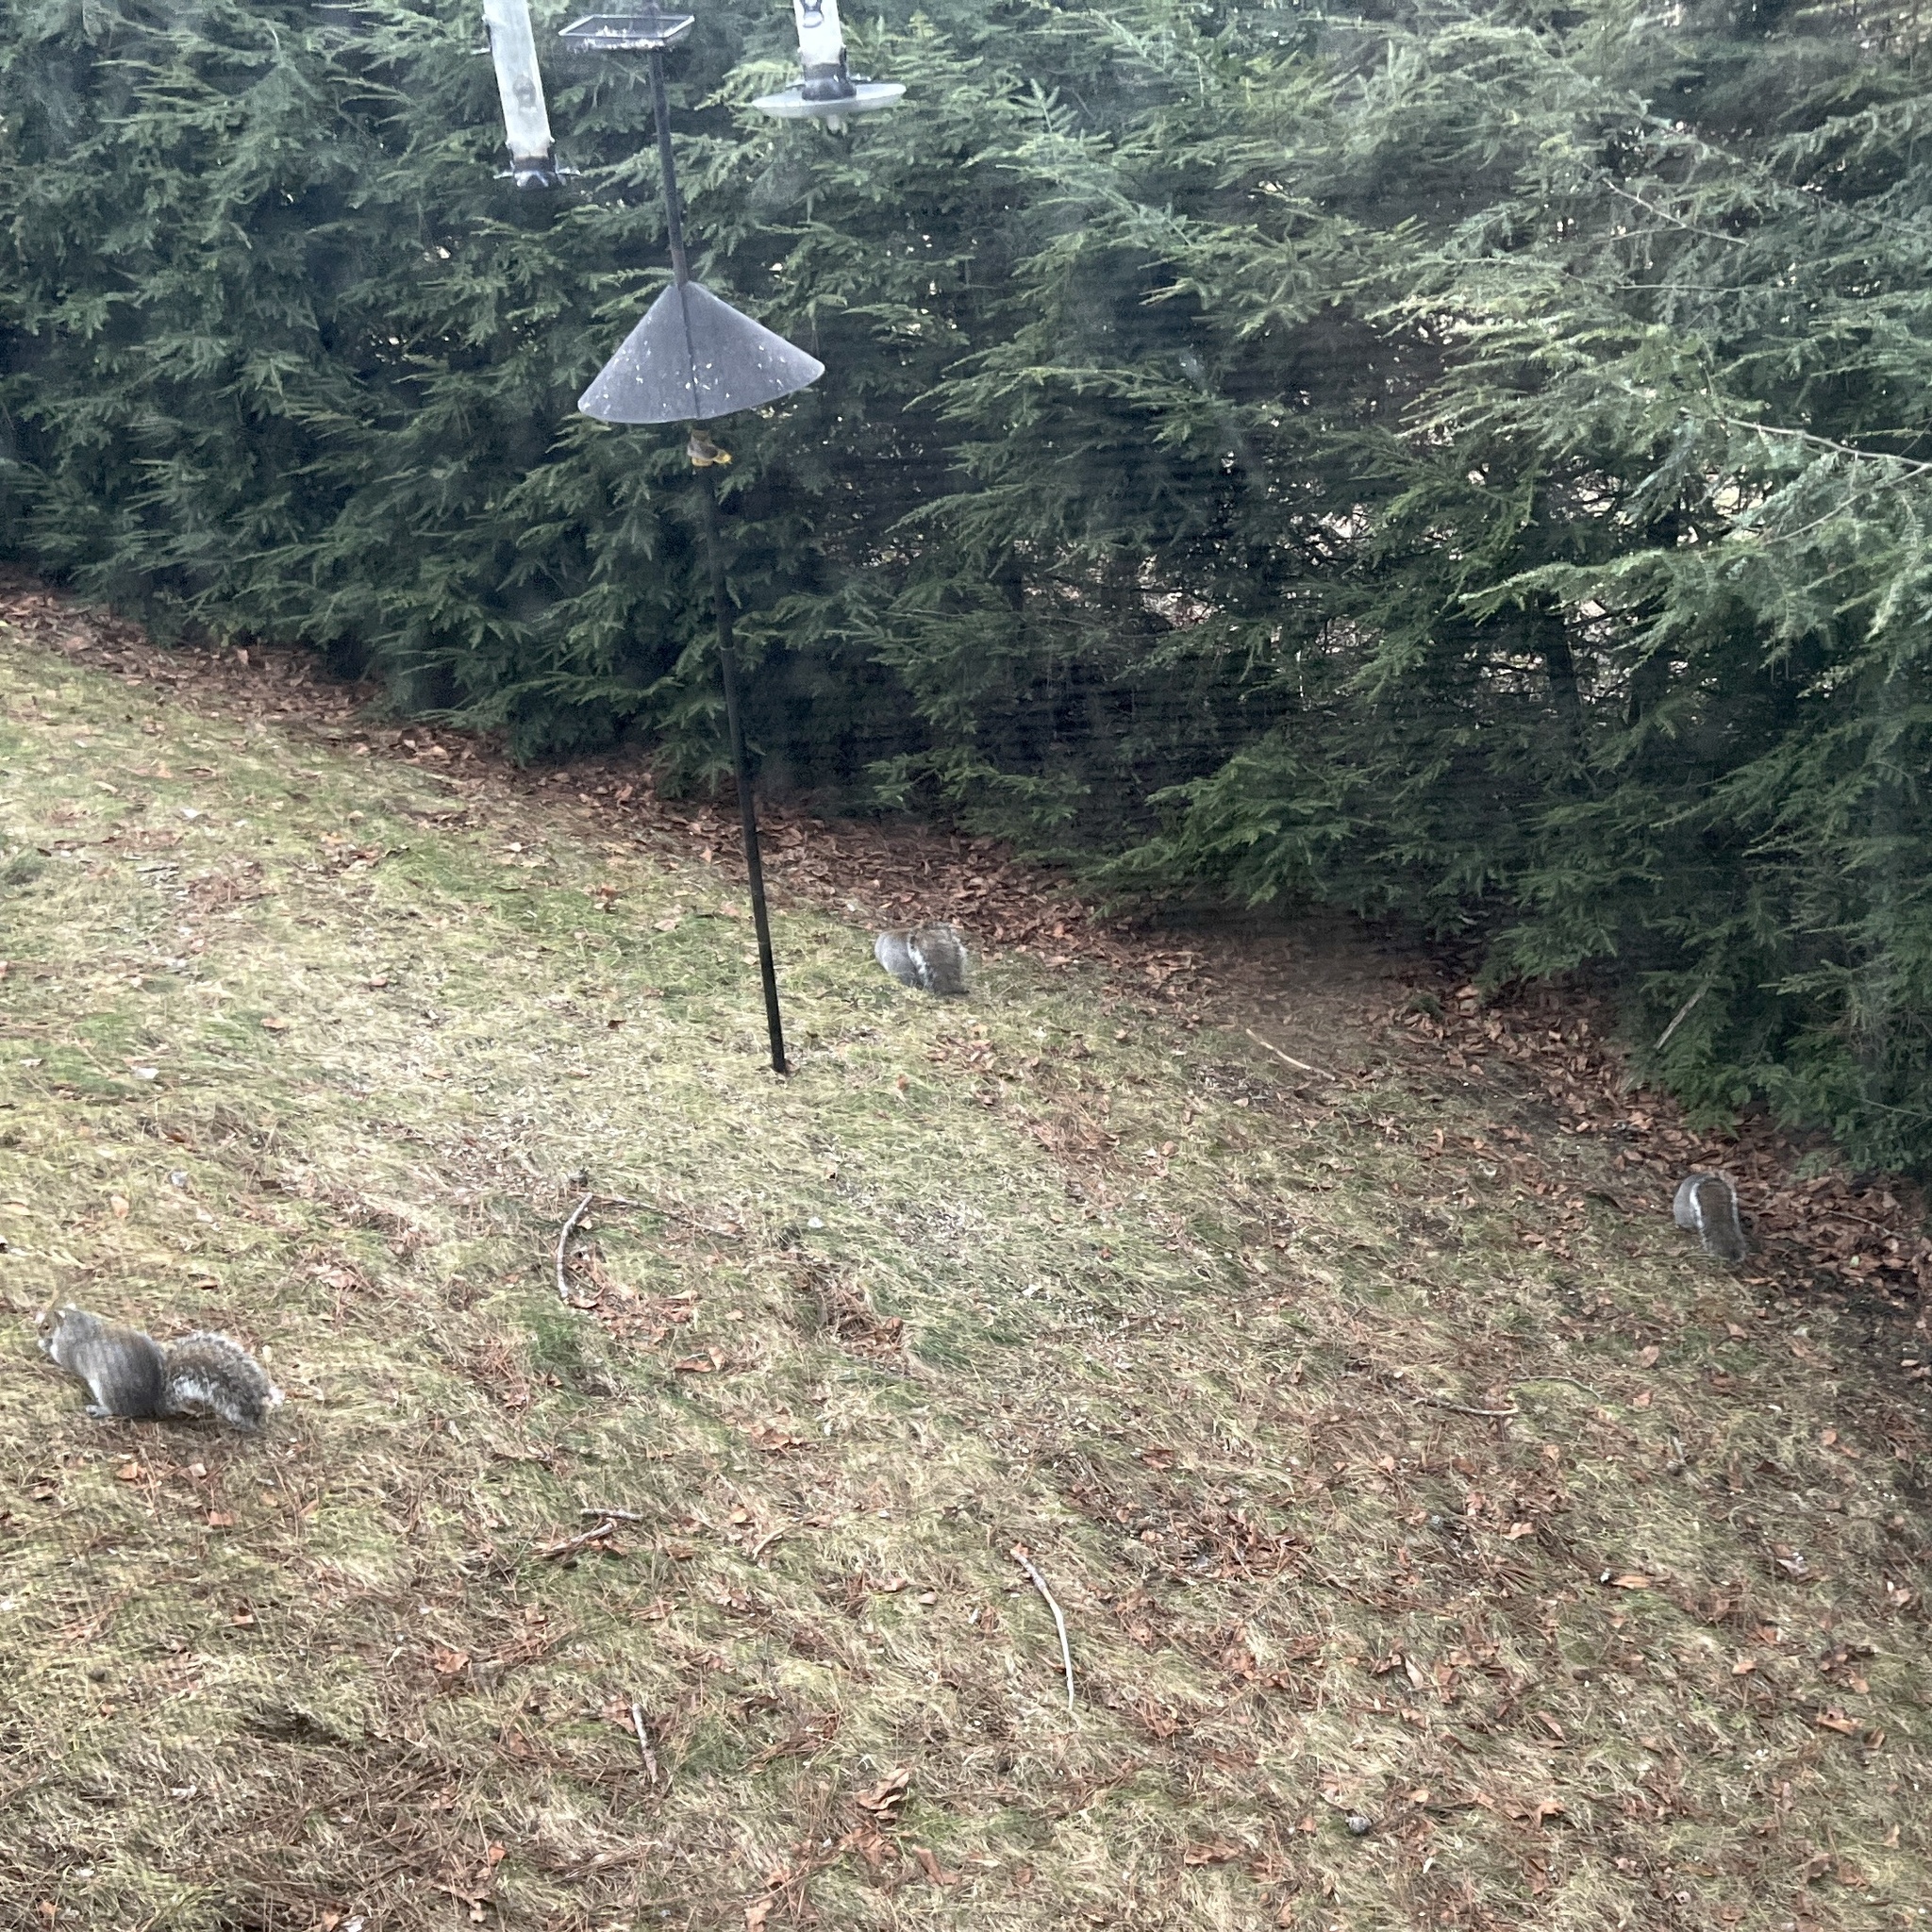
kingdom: Animalia
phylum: Chordata
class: Mammalia
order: Rodentia
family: Sciuridae
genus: Sciurus
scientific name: Sciurus carolinensis
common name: Eastern gray squirrel
